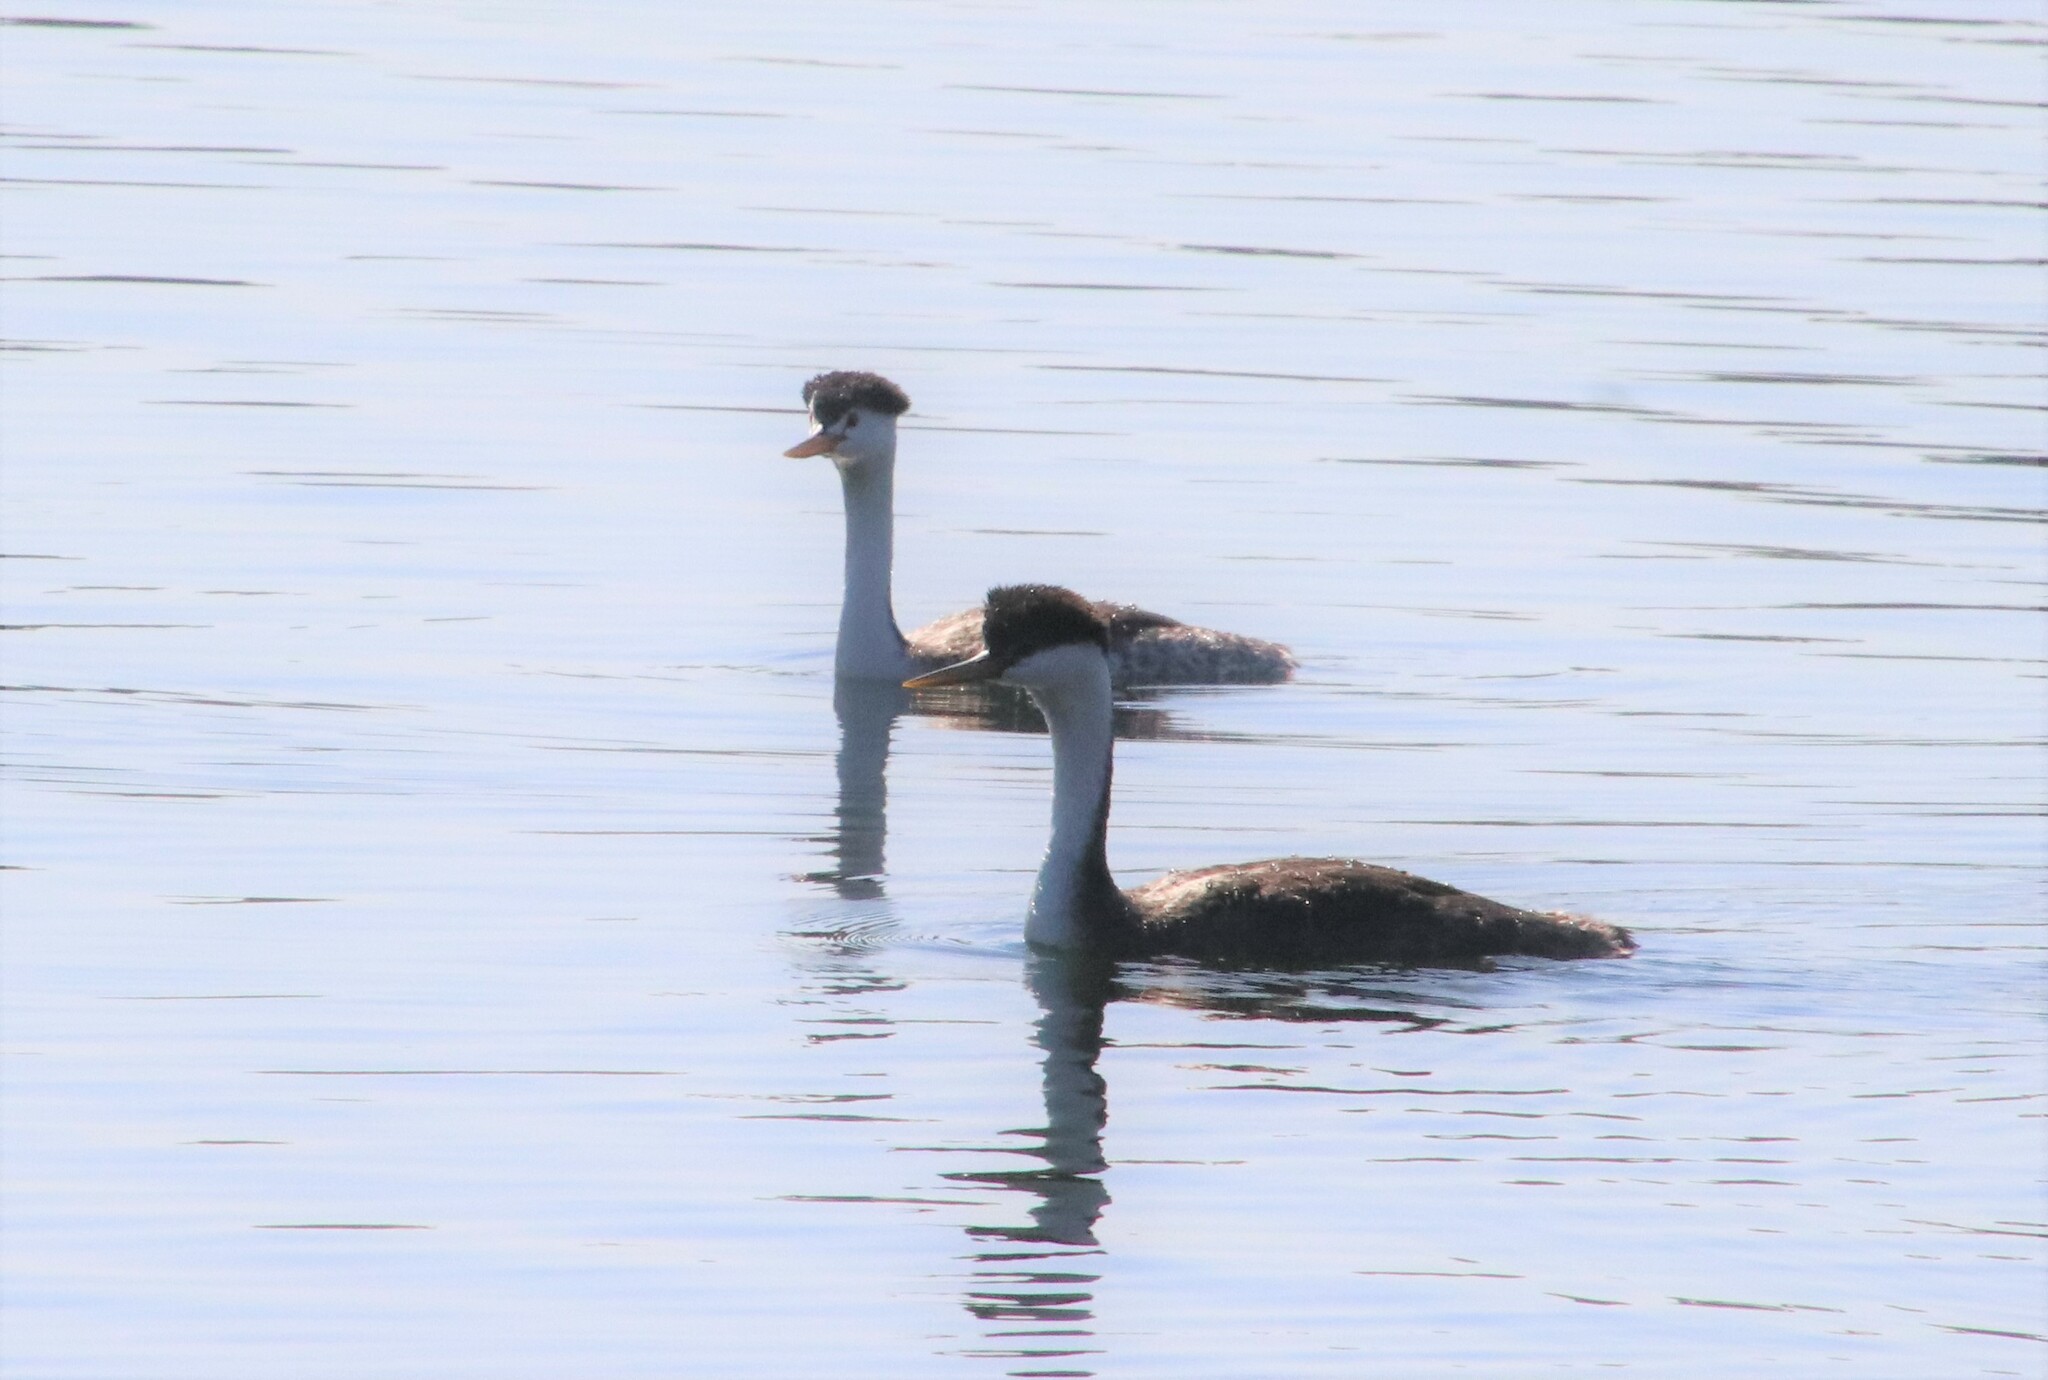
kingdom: Animalia
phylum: Chordata
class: Aves
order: Podicipediformes
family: Podicipedidae
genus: Aechmophorus
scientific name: Aechmophorus occidentalis
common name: Western grebe
